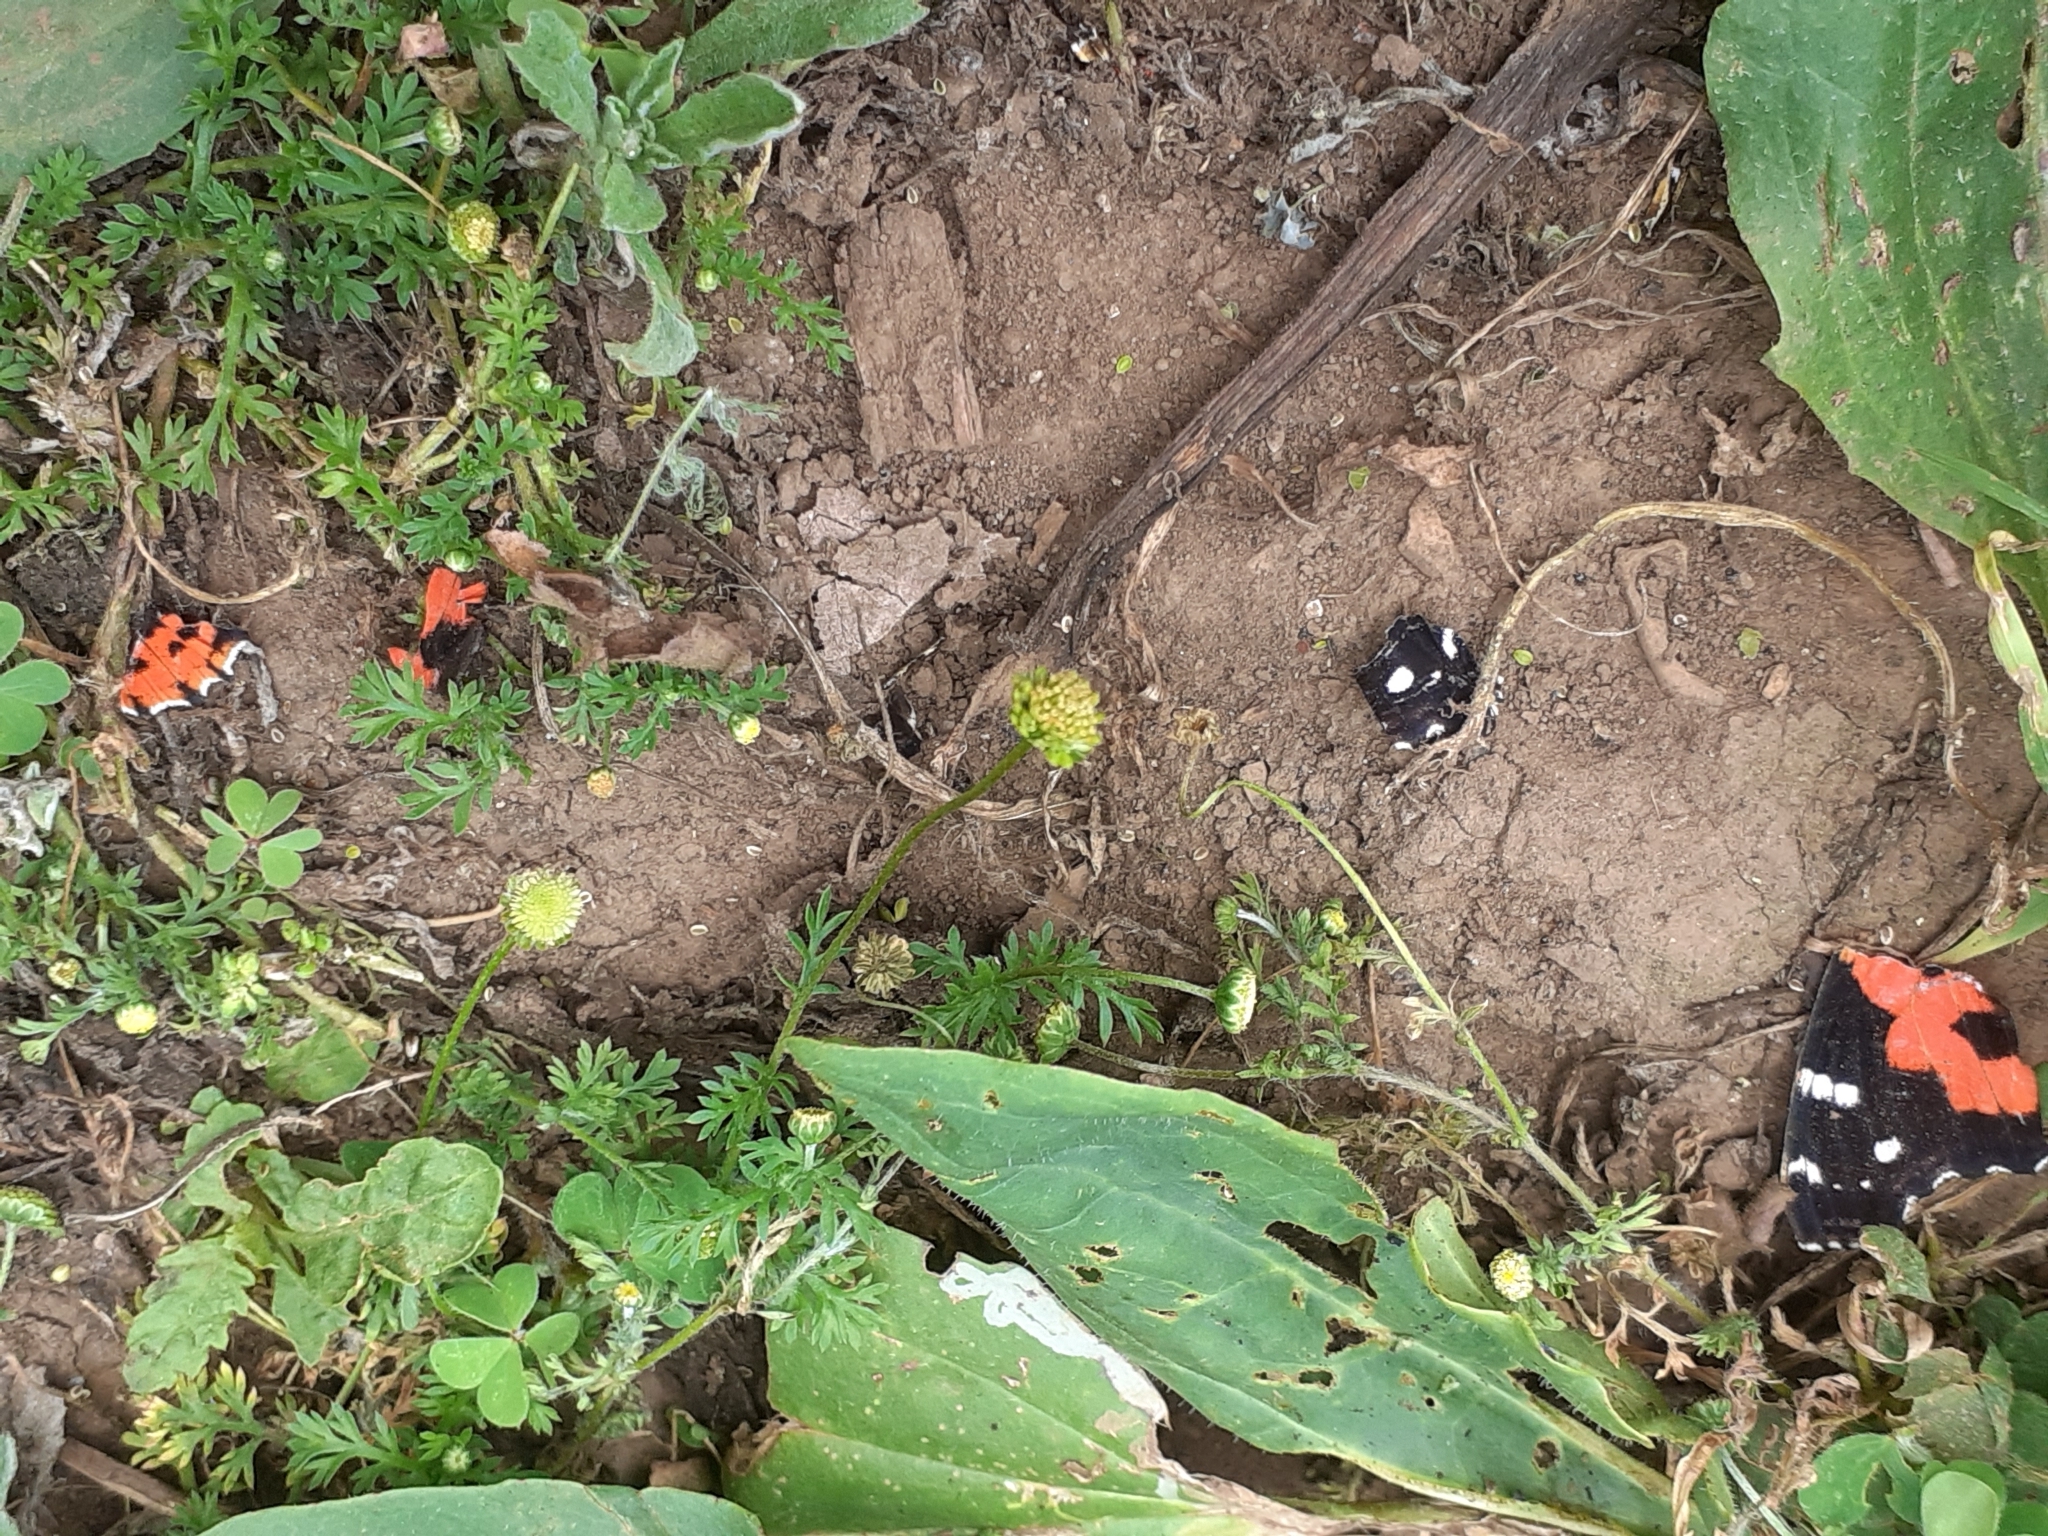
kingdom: Animalia
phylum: Arthropoda
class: Insecta
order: Lepidoptera
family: Nymphalidae
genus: Vanessa
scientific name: Vanessa vulcania
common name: Canary red admiral
